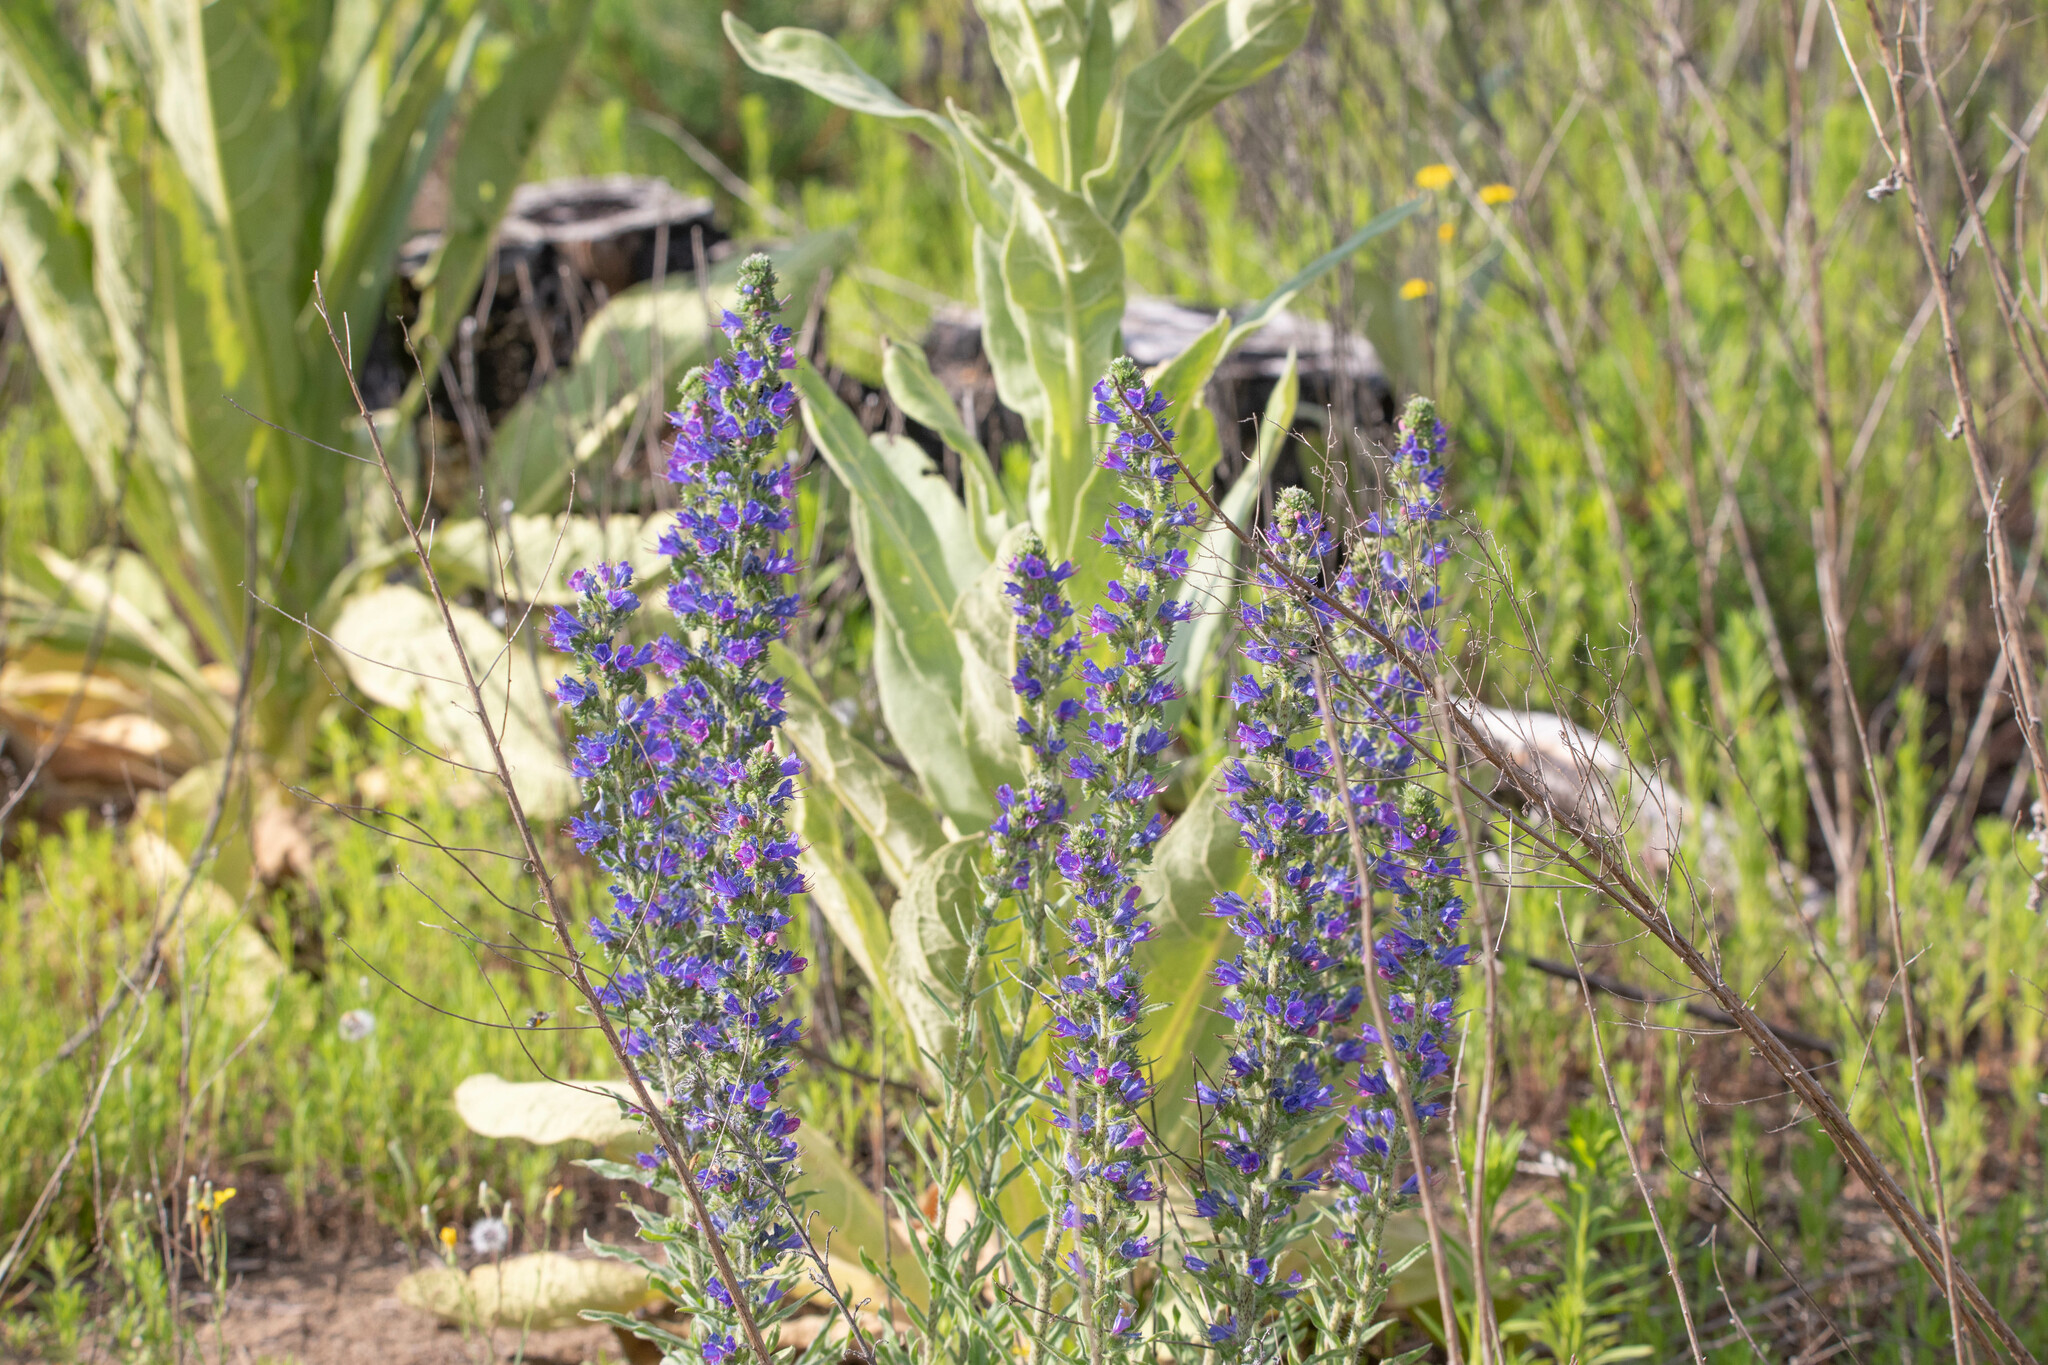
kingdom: Plantae
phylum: Tracheophyta
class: Magnoliopsida
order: Boraginales
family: Boraginaceae
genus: Echium
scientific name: Echium vulgare
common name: Common viper's bugloss
